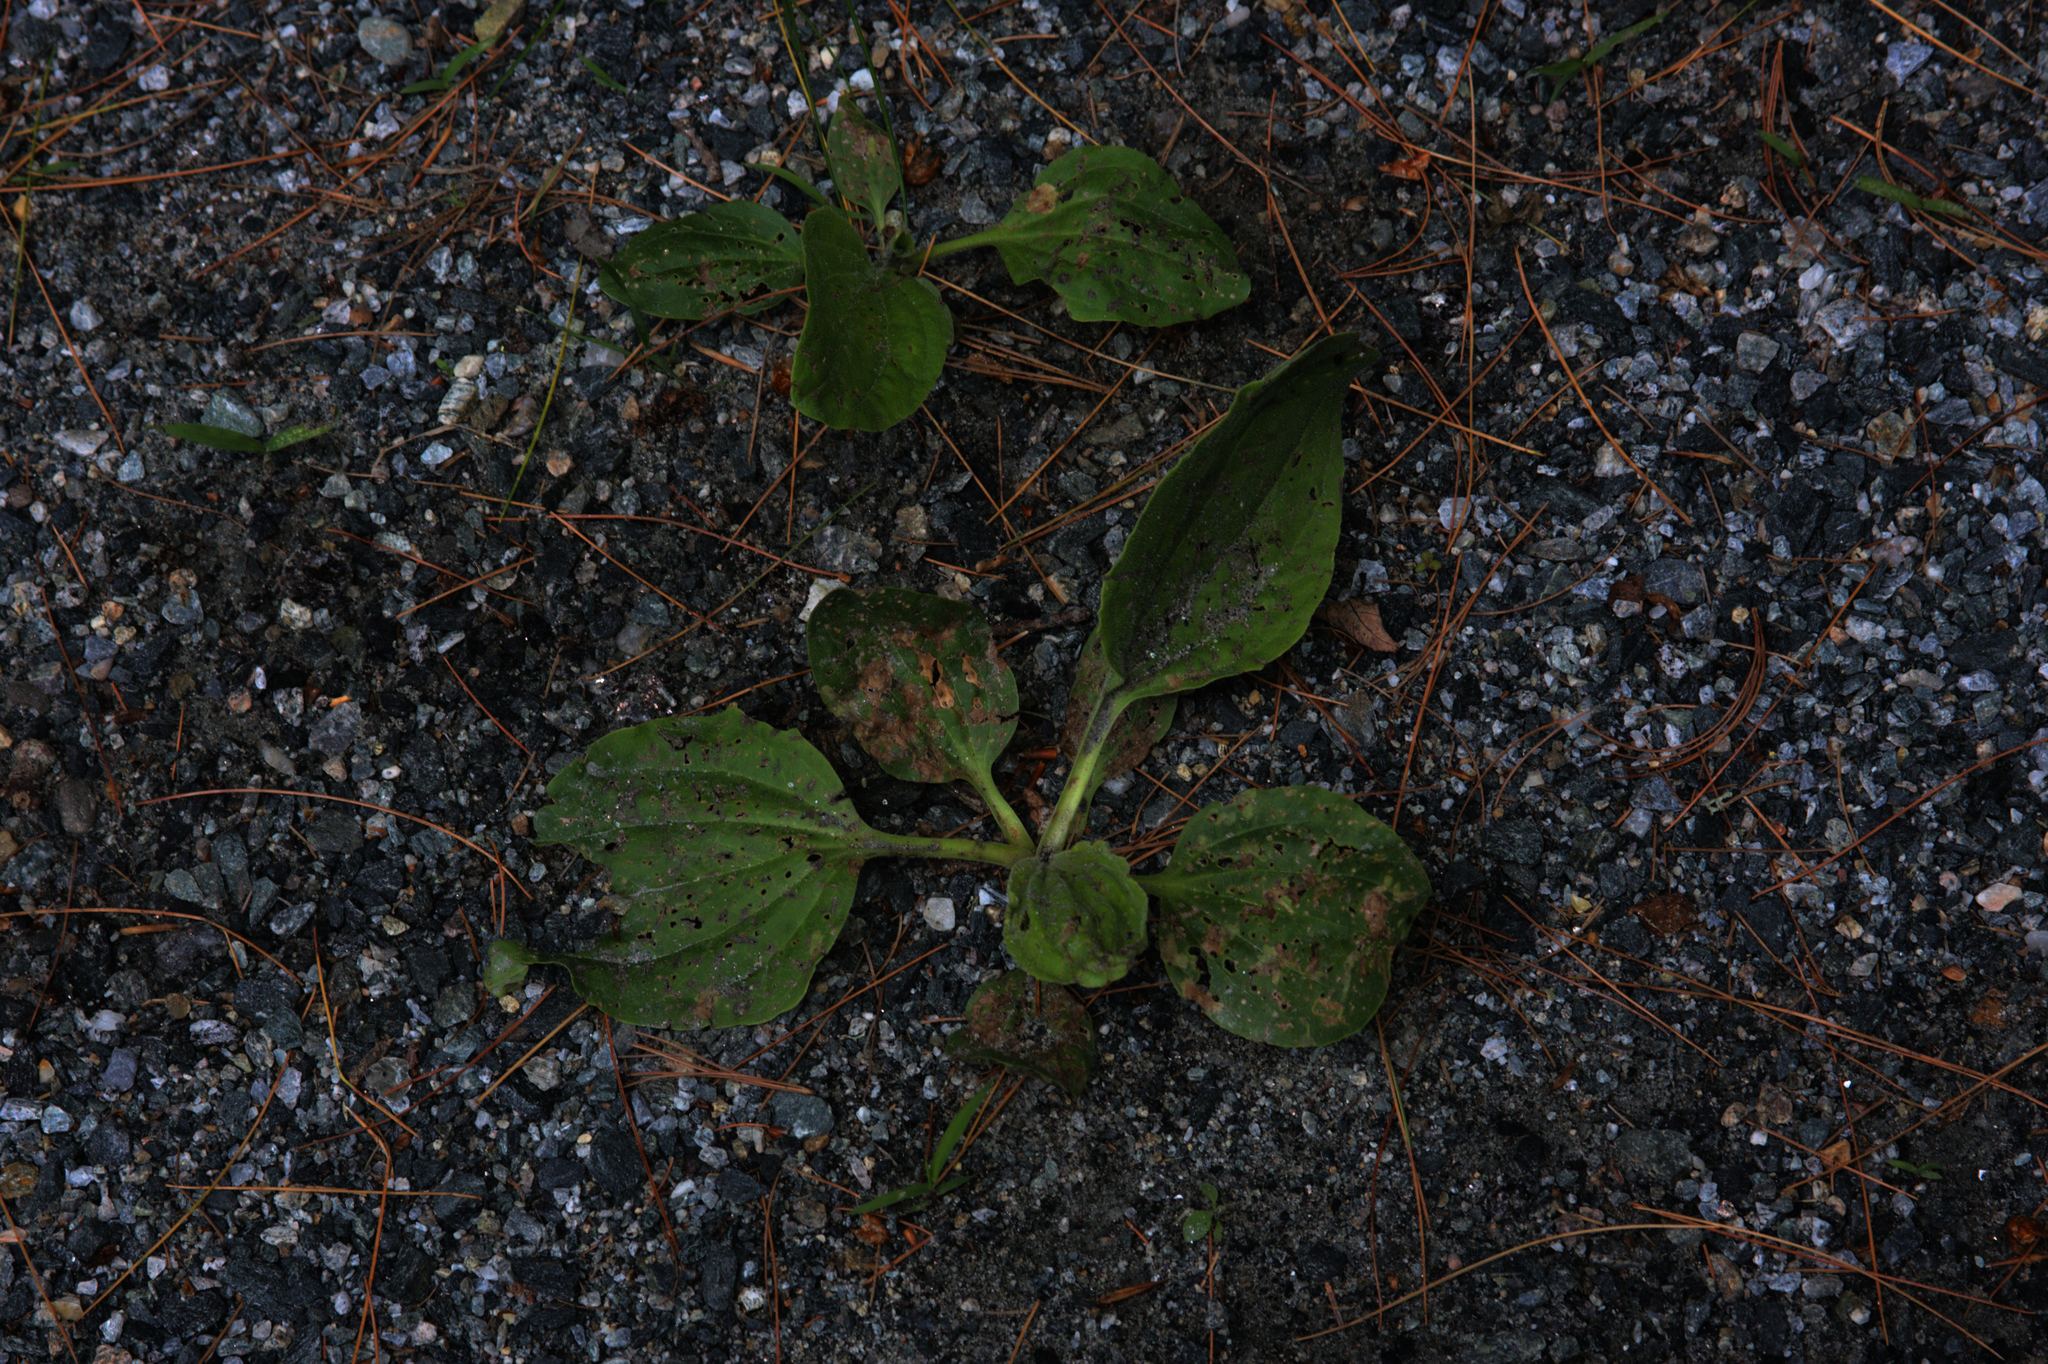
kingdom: Plantae
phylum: Tracheophyta
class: Magnoliopsida
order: Lamiales
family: Plantaginaceae
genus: Plantago
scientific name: Plantago major
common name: Common plantain
